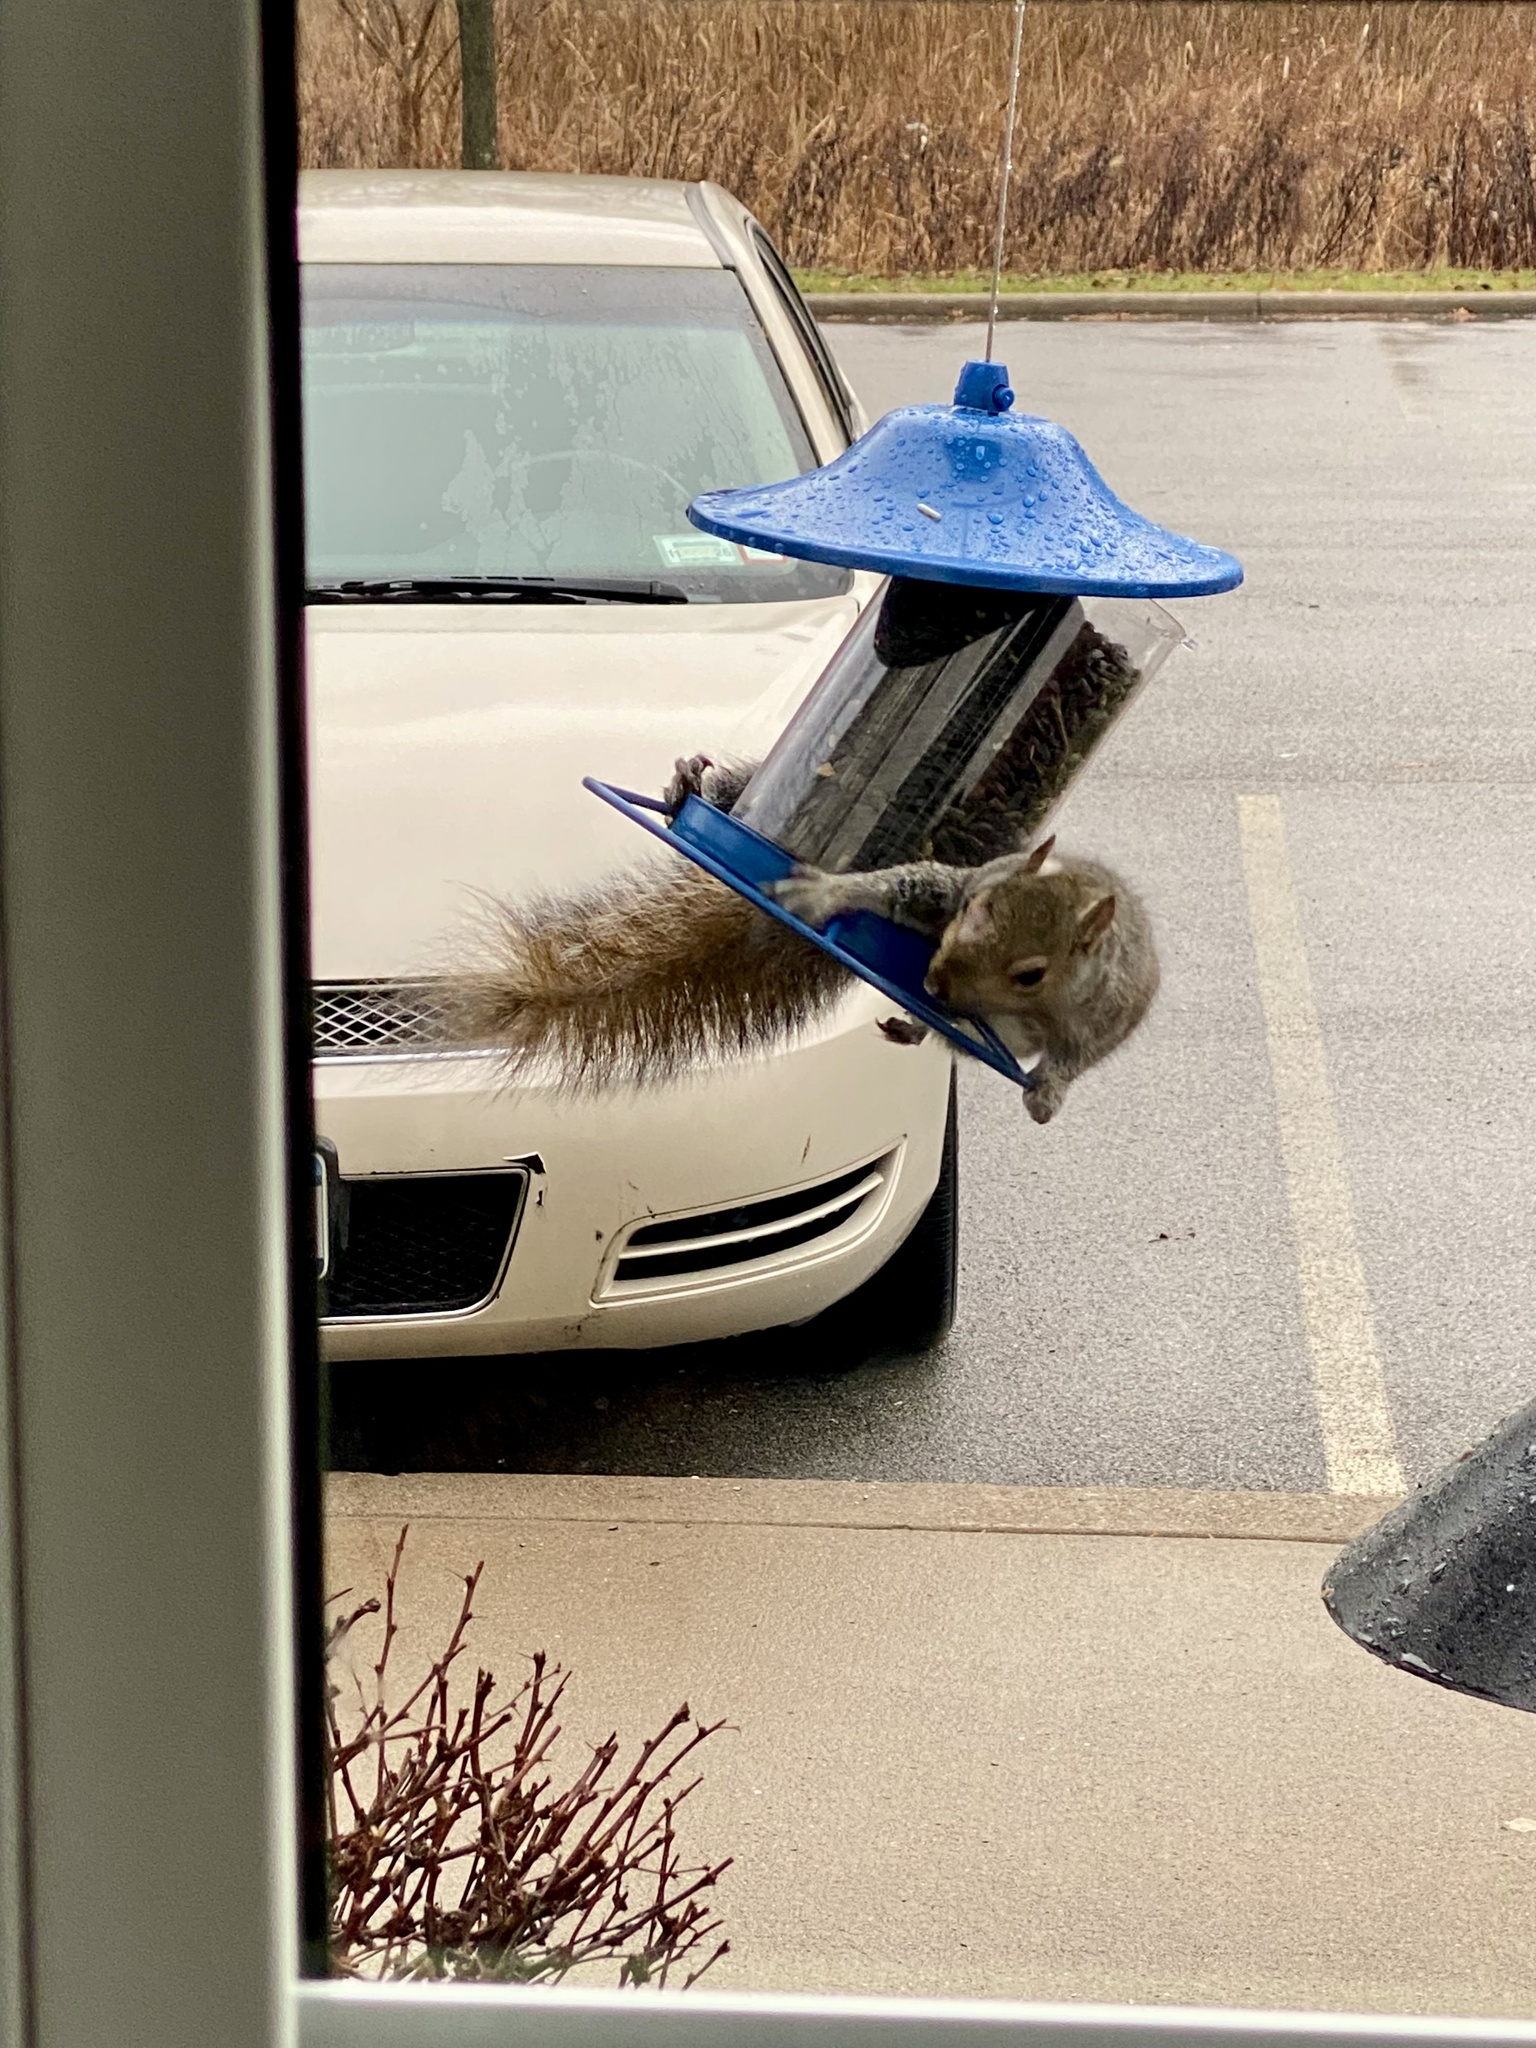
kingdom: Animalia
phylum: Chordata
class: Mammalia
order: Rodentia
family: Sciuridae
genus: Sciurus
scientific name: Sciurus carolinensis
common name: Eastern gray squirrel
